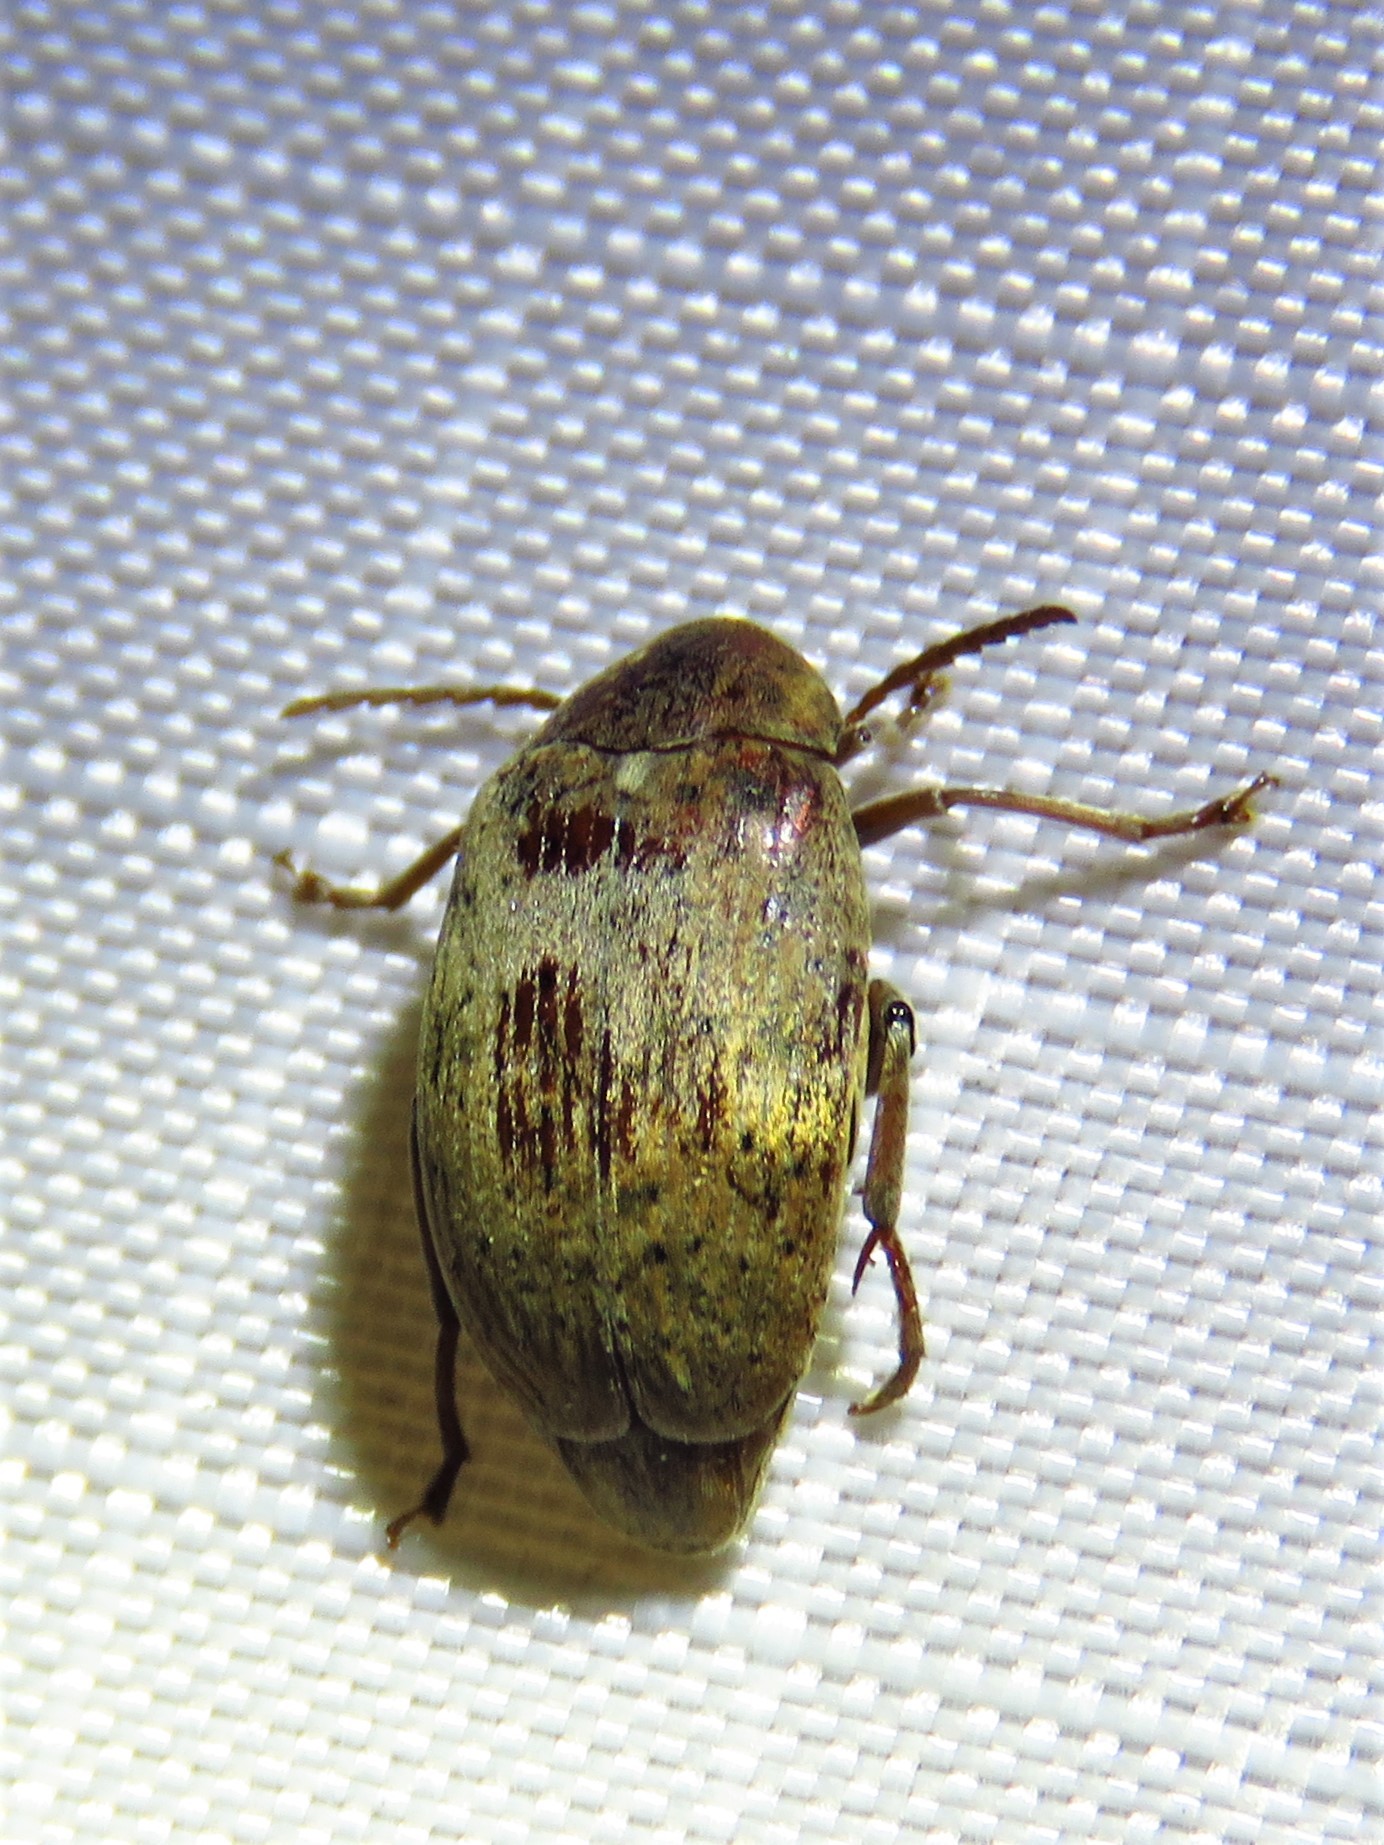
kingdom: Animalia
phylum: Arthropoda
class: Insecta
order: Coleoptera
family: Chrysomelidae
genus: Amblycerus
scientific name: Amblycerus robiniae
